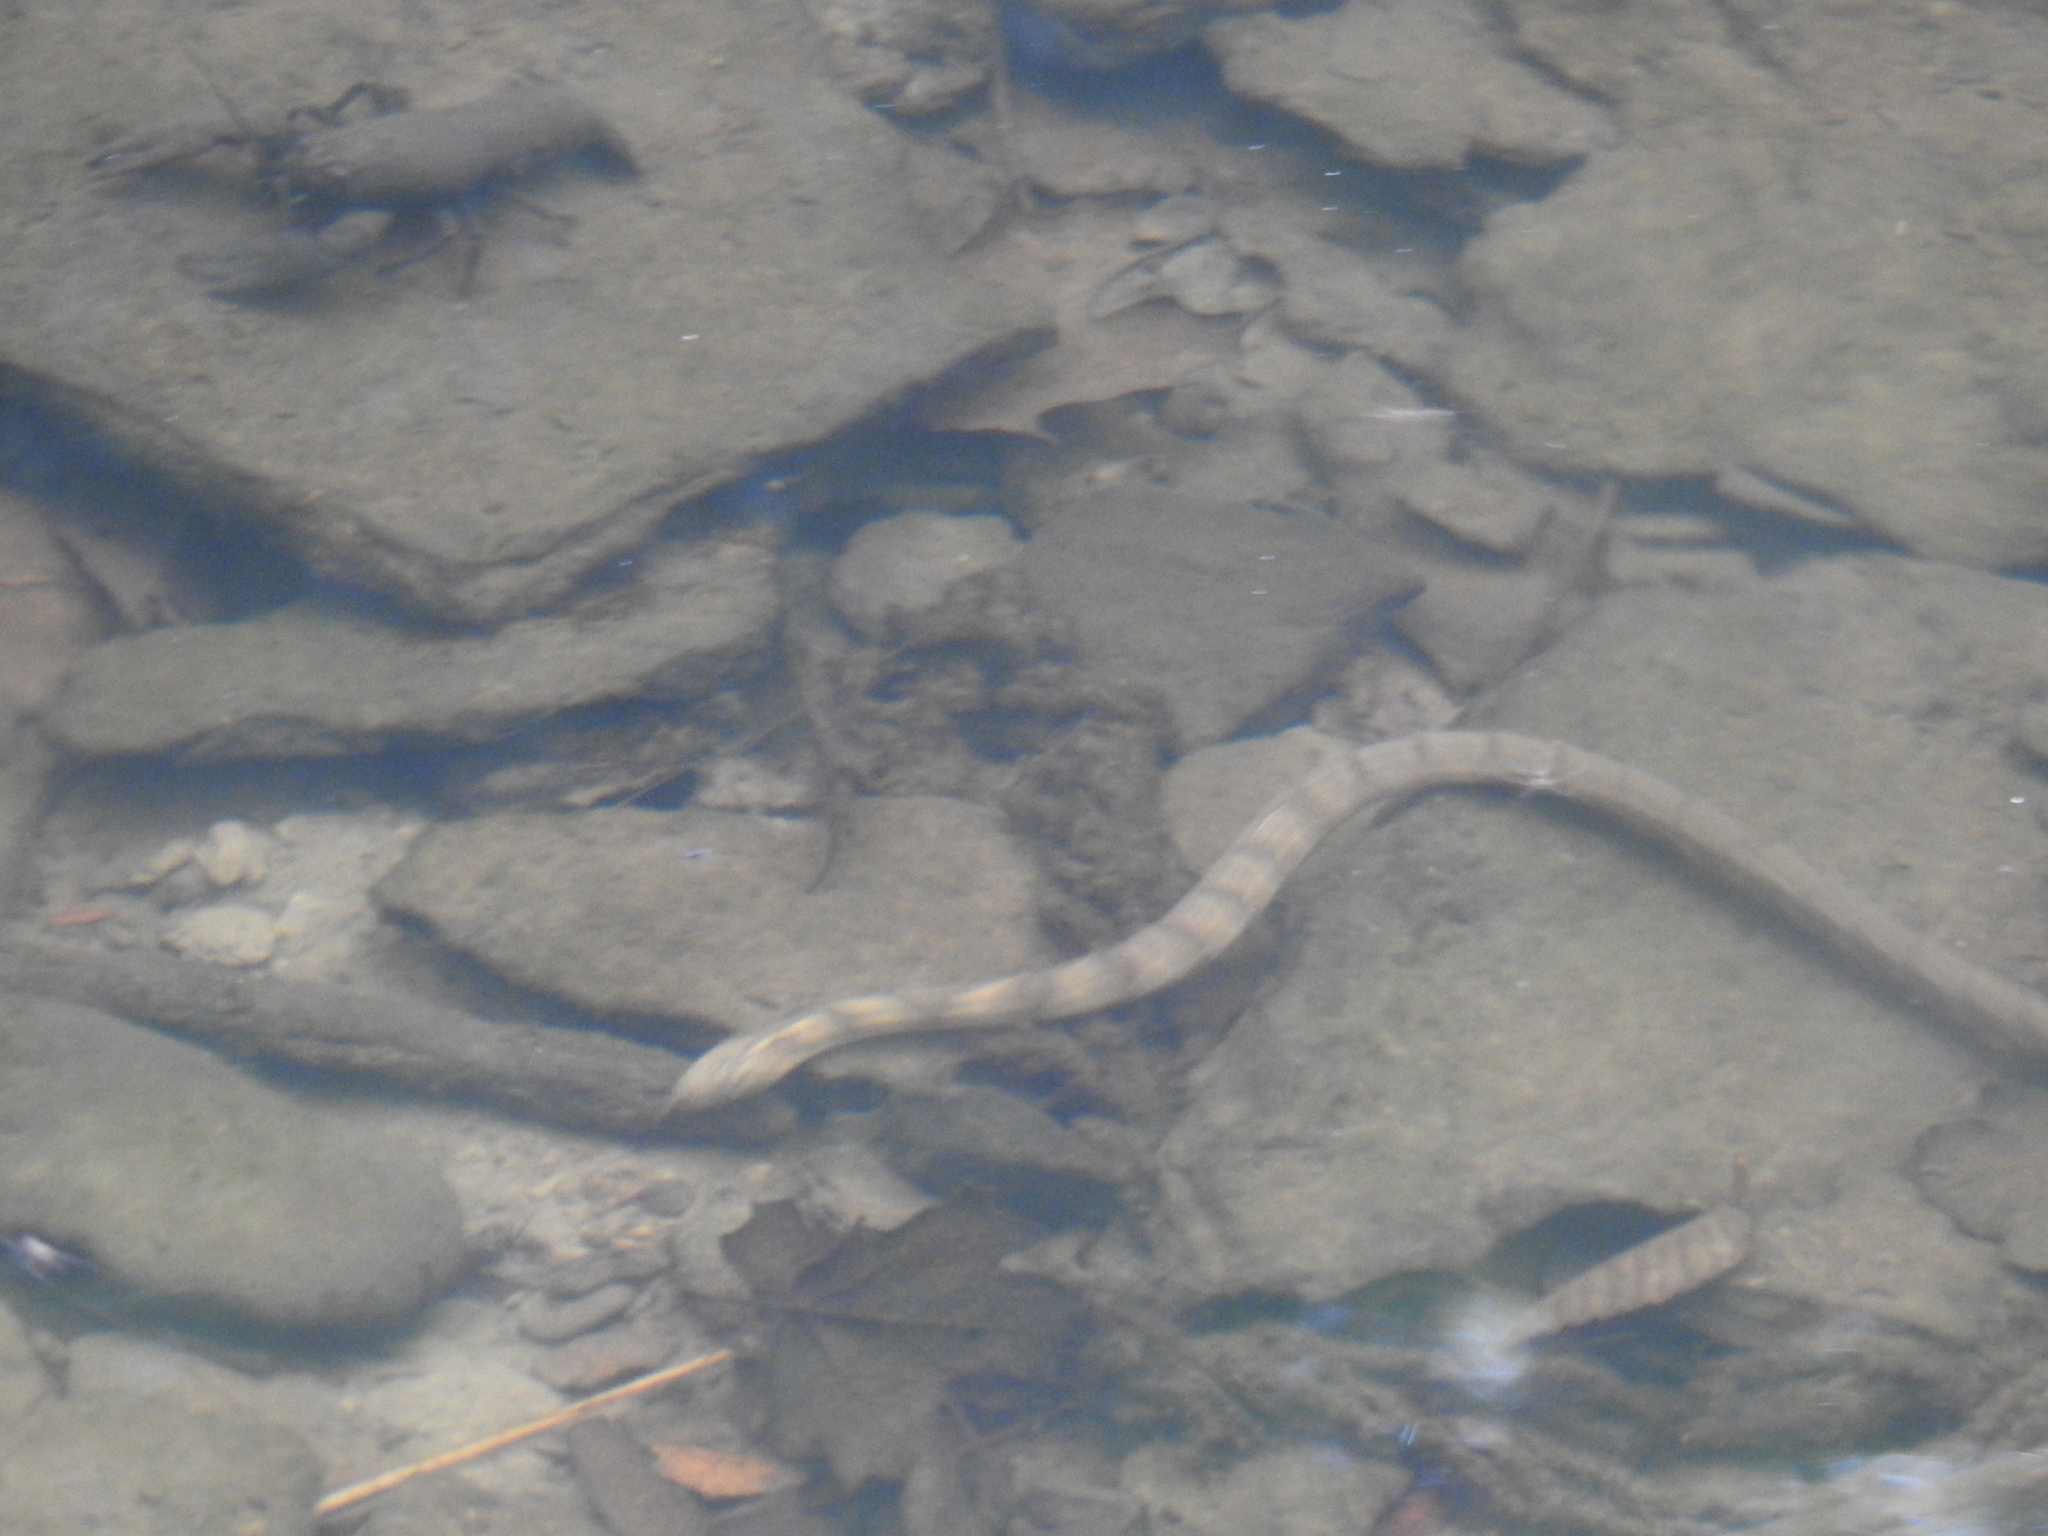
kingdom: Animalia
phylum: Chordata
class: Squamata
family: Colubridae
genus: Nerodia
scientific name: Nerodia sipedon
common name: Northern water snake
